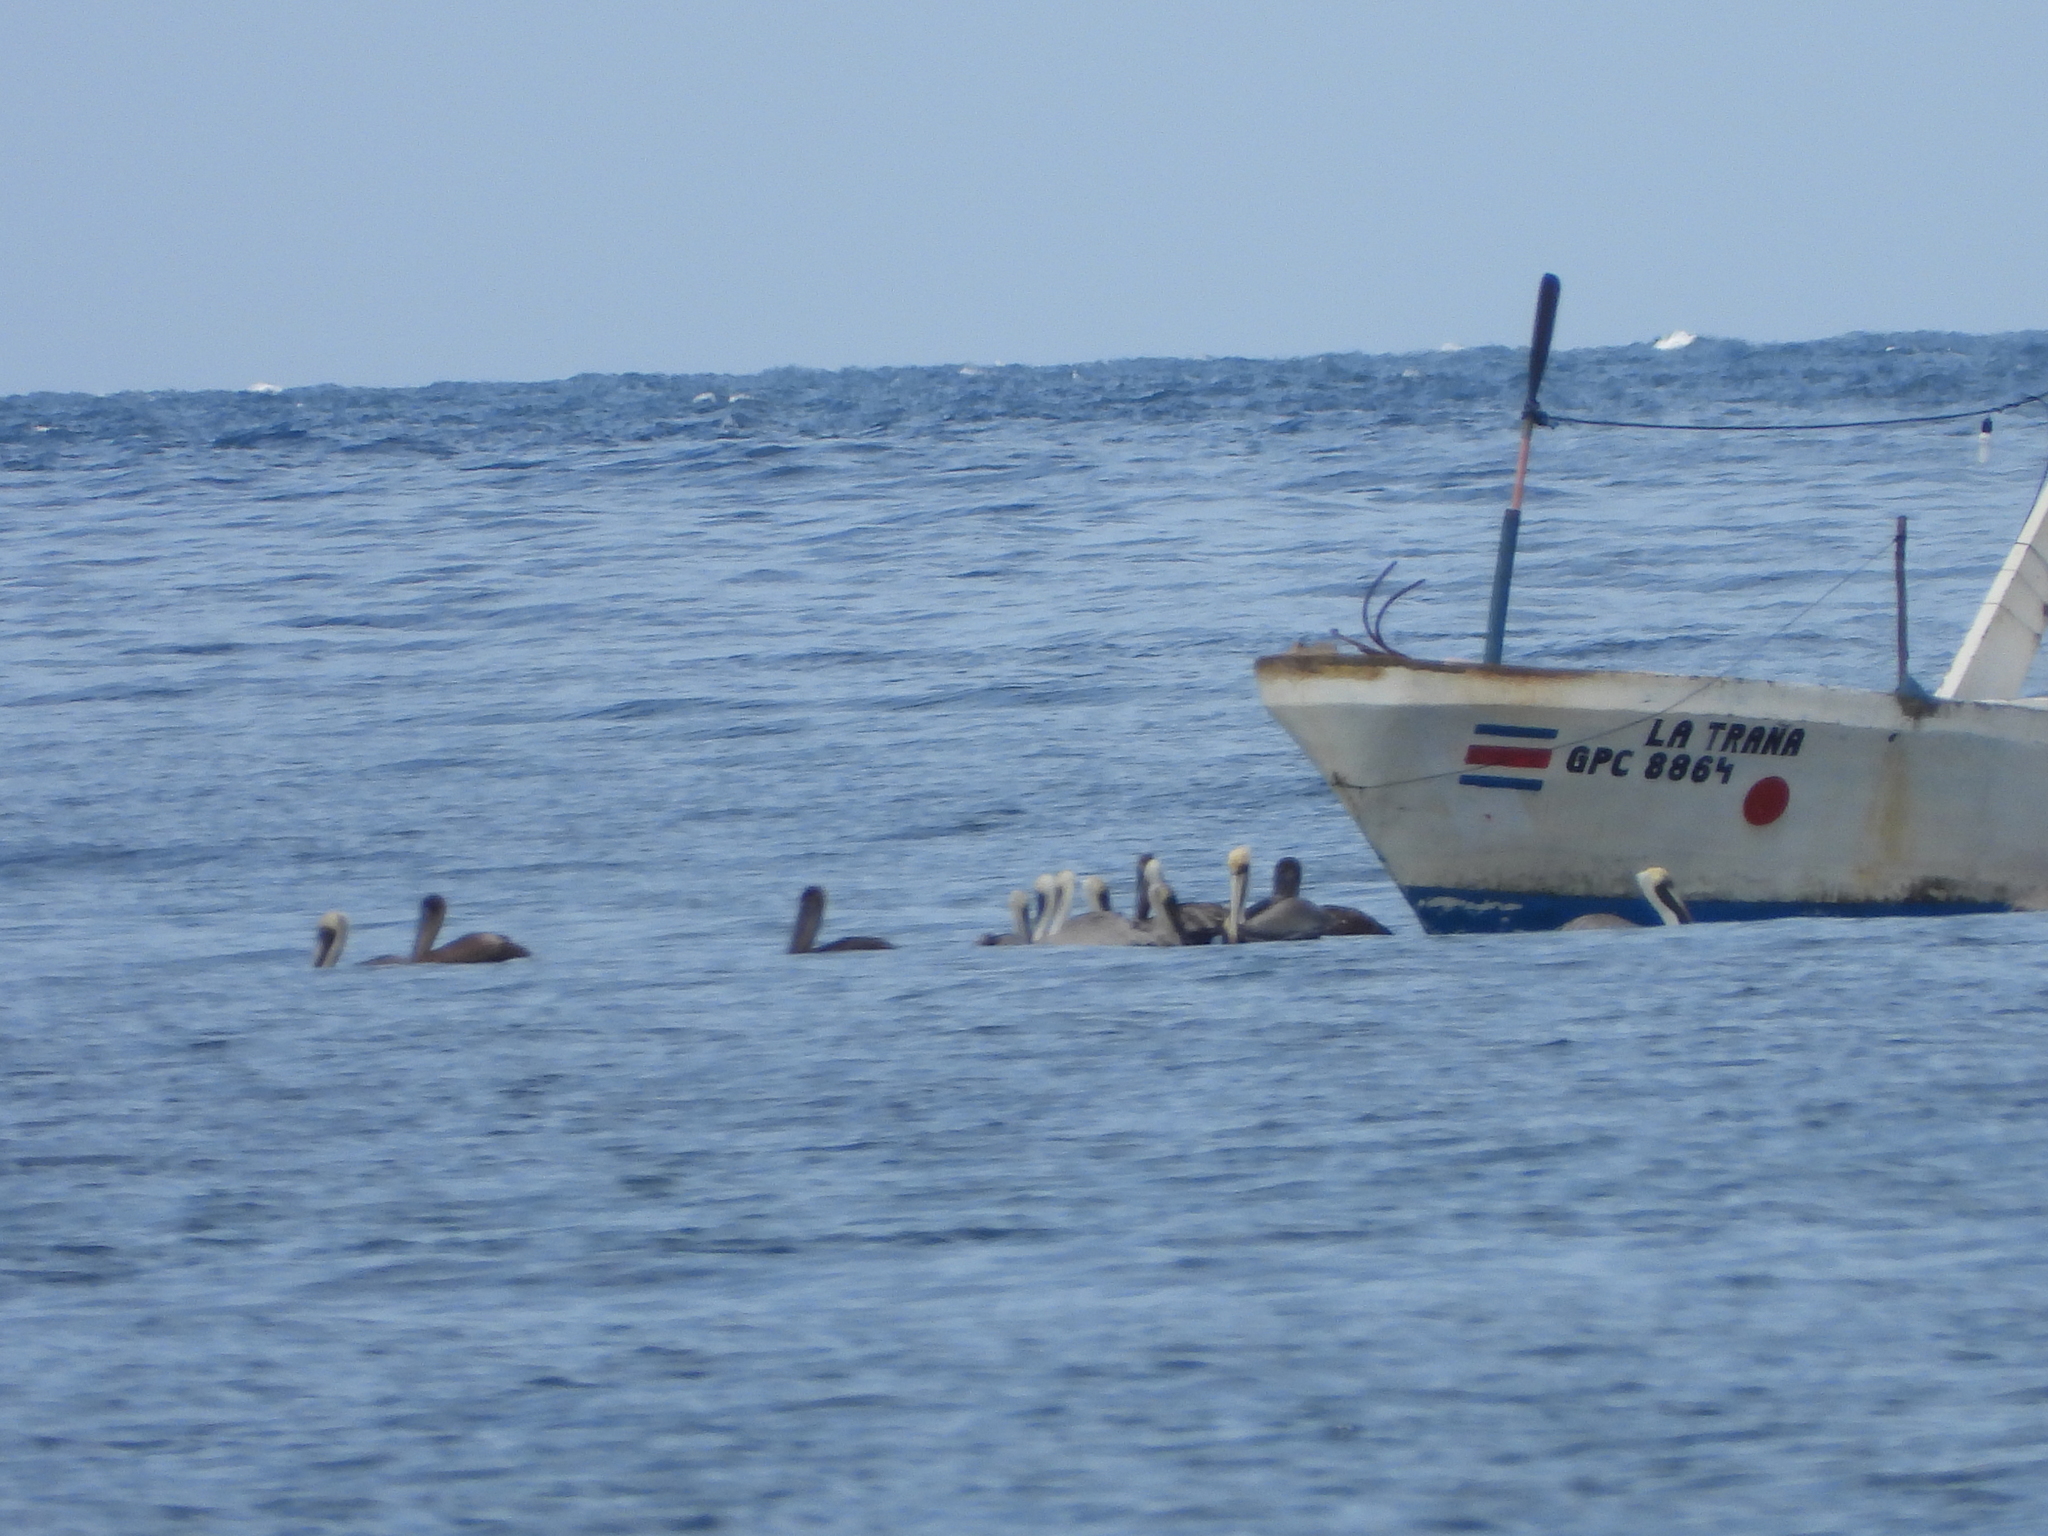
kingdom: Animalia
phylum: Chordata
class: Aves
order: Pelecaniformes
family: Pelecanidae
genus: Pelecanus
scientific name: Pelecanus occidentalis
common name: Brown pelican
